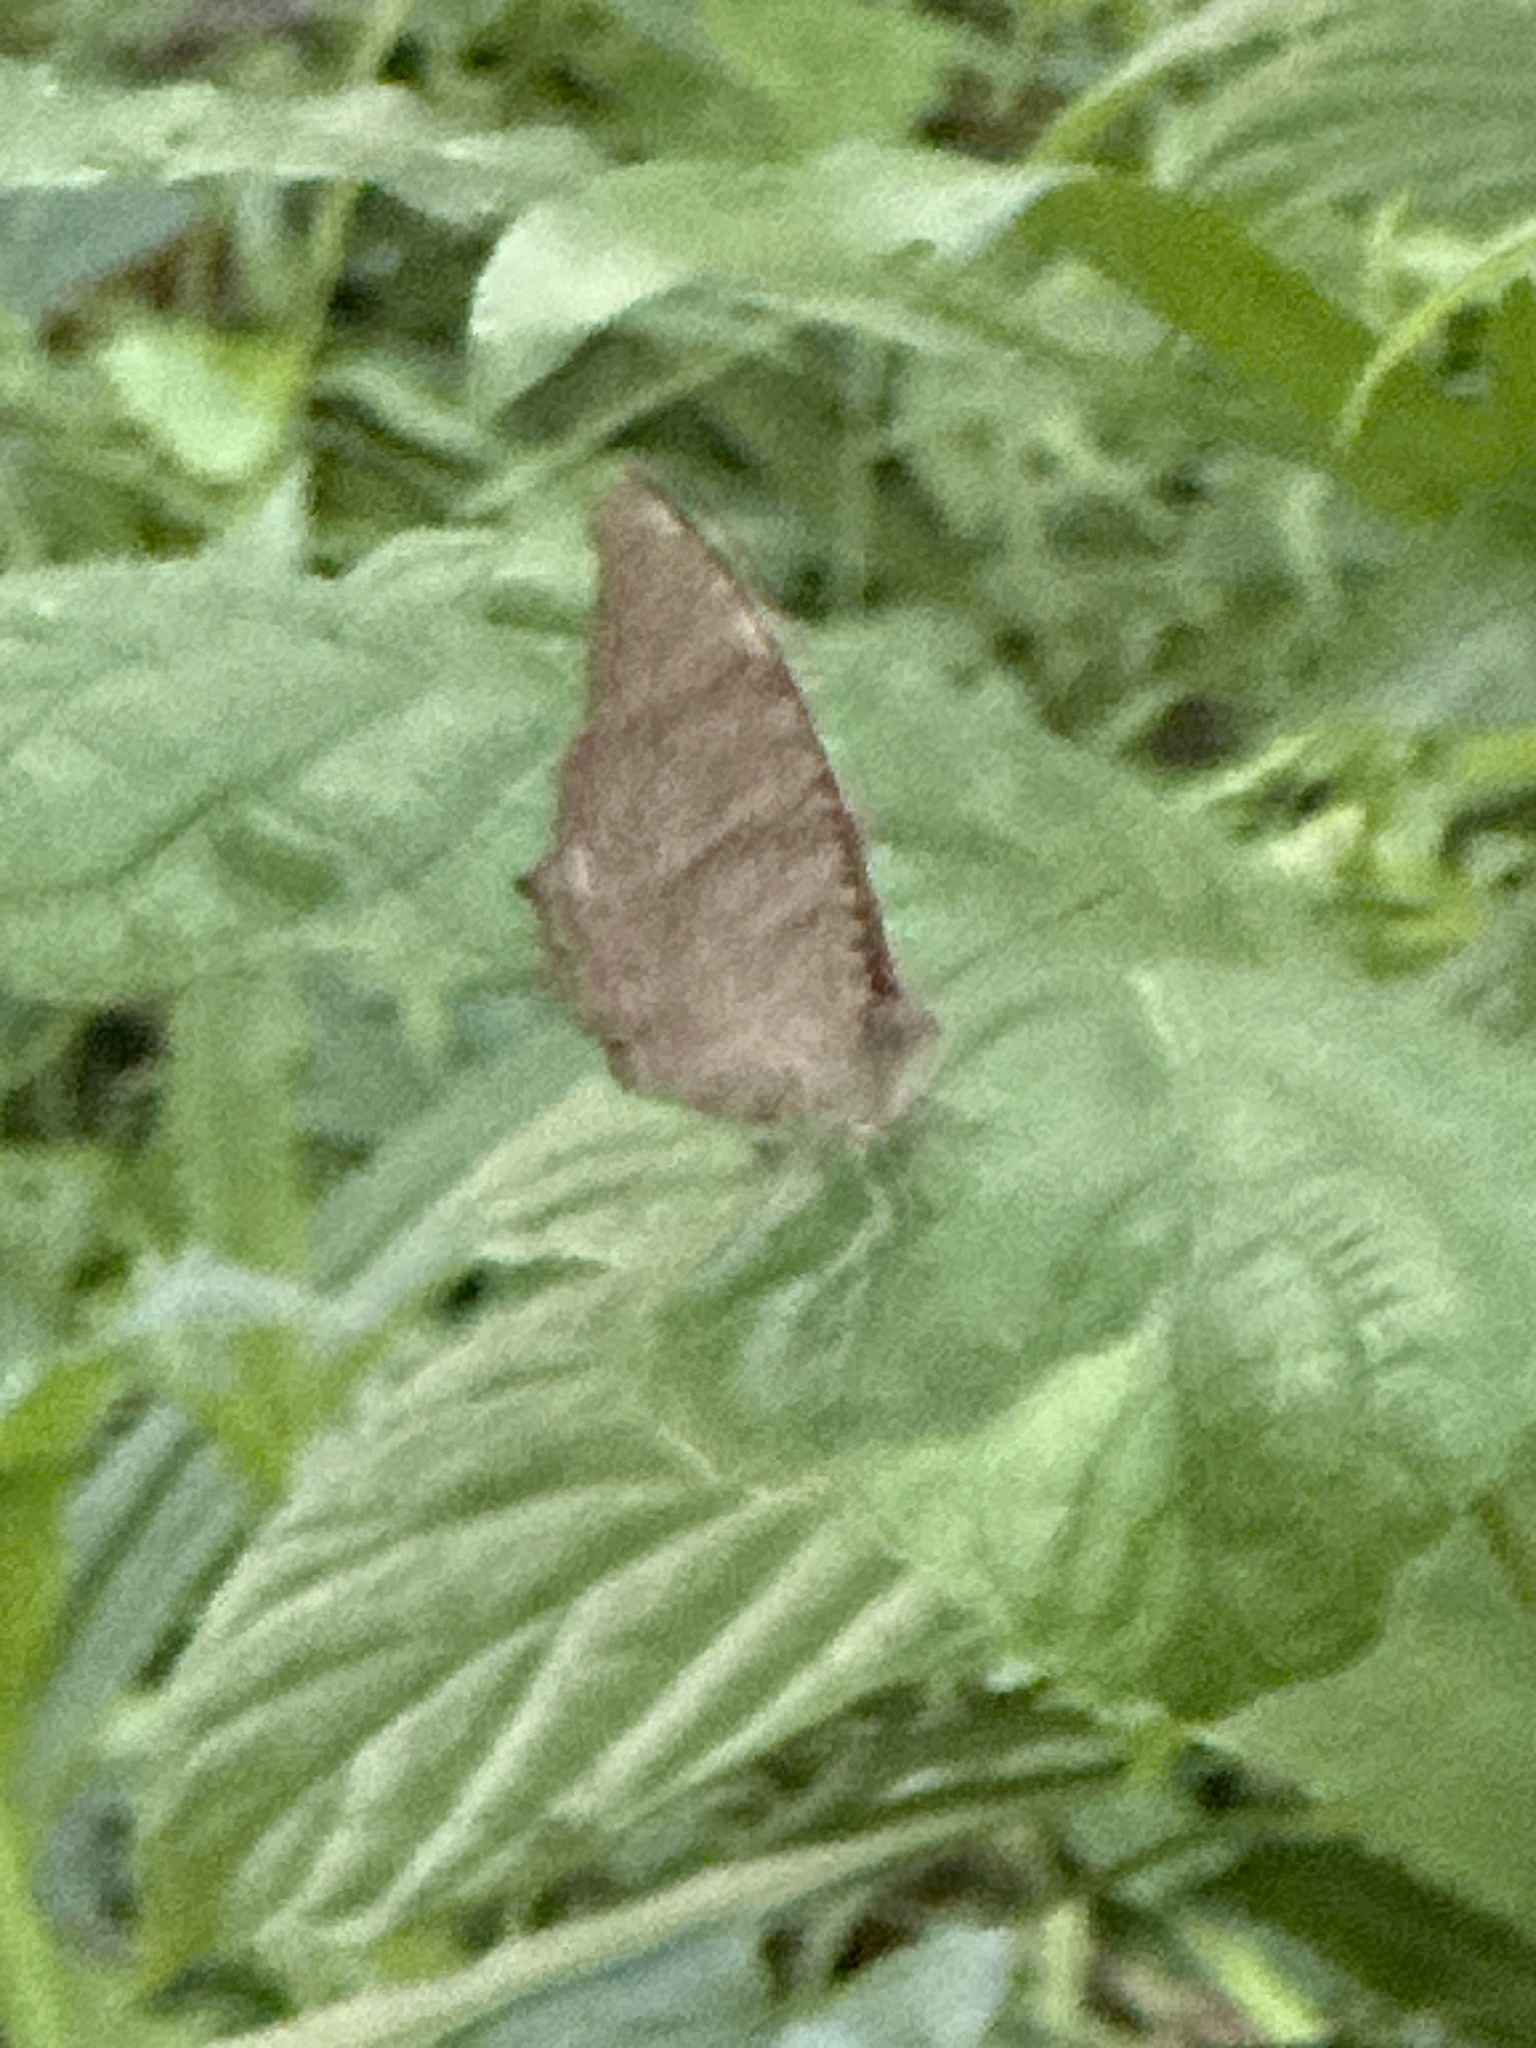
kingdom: Animalia
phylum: Arthropoda
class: Insecta
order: Lepidoptera
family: Nymphalidae
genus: Melanitis
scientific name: Melanitis phedima
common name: Dark evening brown
